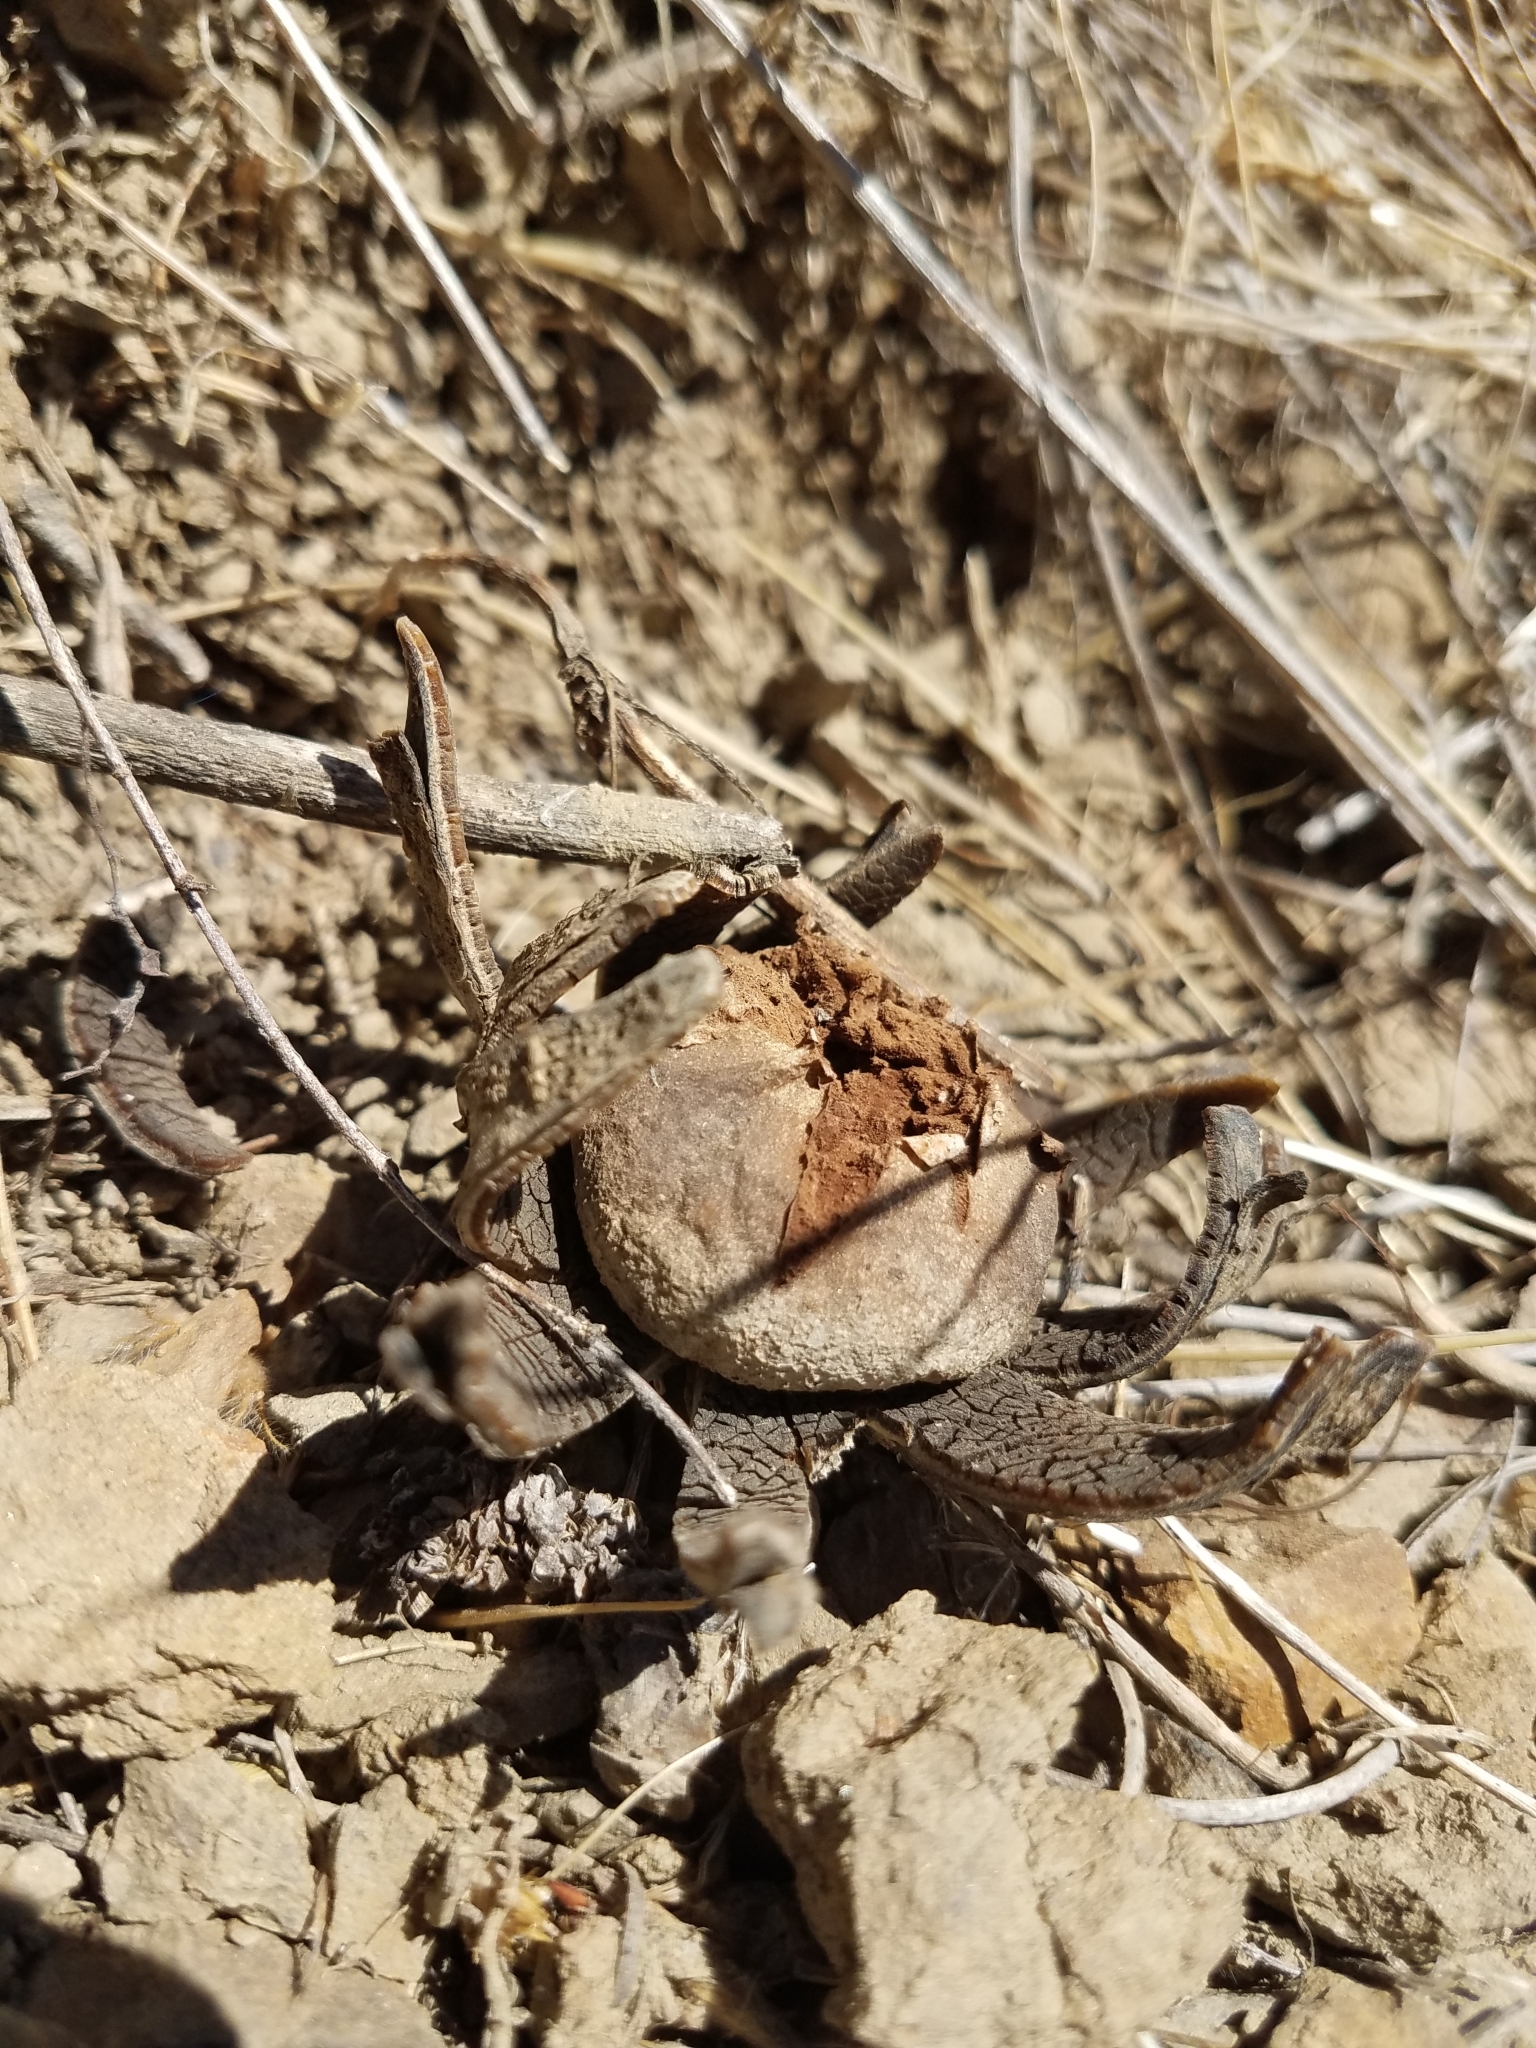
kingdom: Fungi
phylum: Basidiomycota
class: Agaricomycetes
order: Boletales
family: Diplocystidiaceae
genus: Astraeus
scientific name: Astraeus hygrometricus
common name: Barometer earthstar
